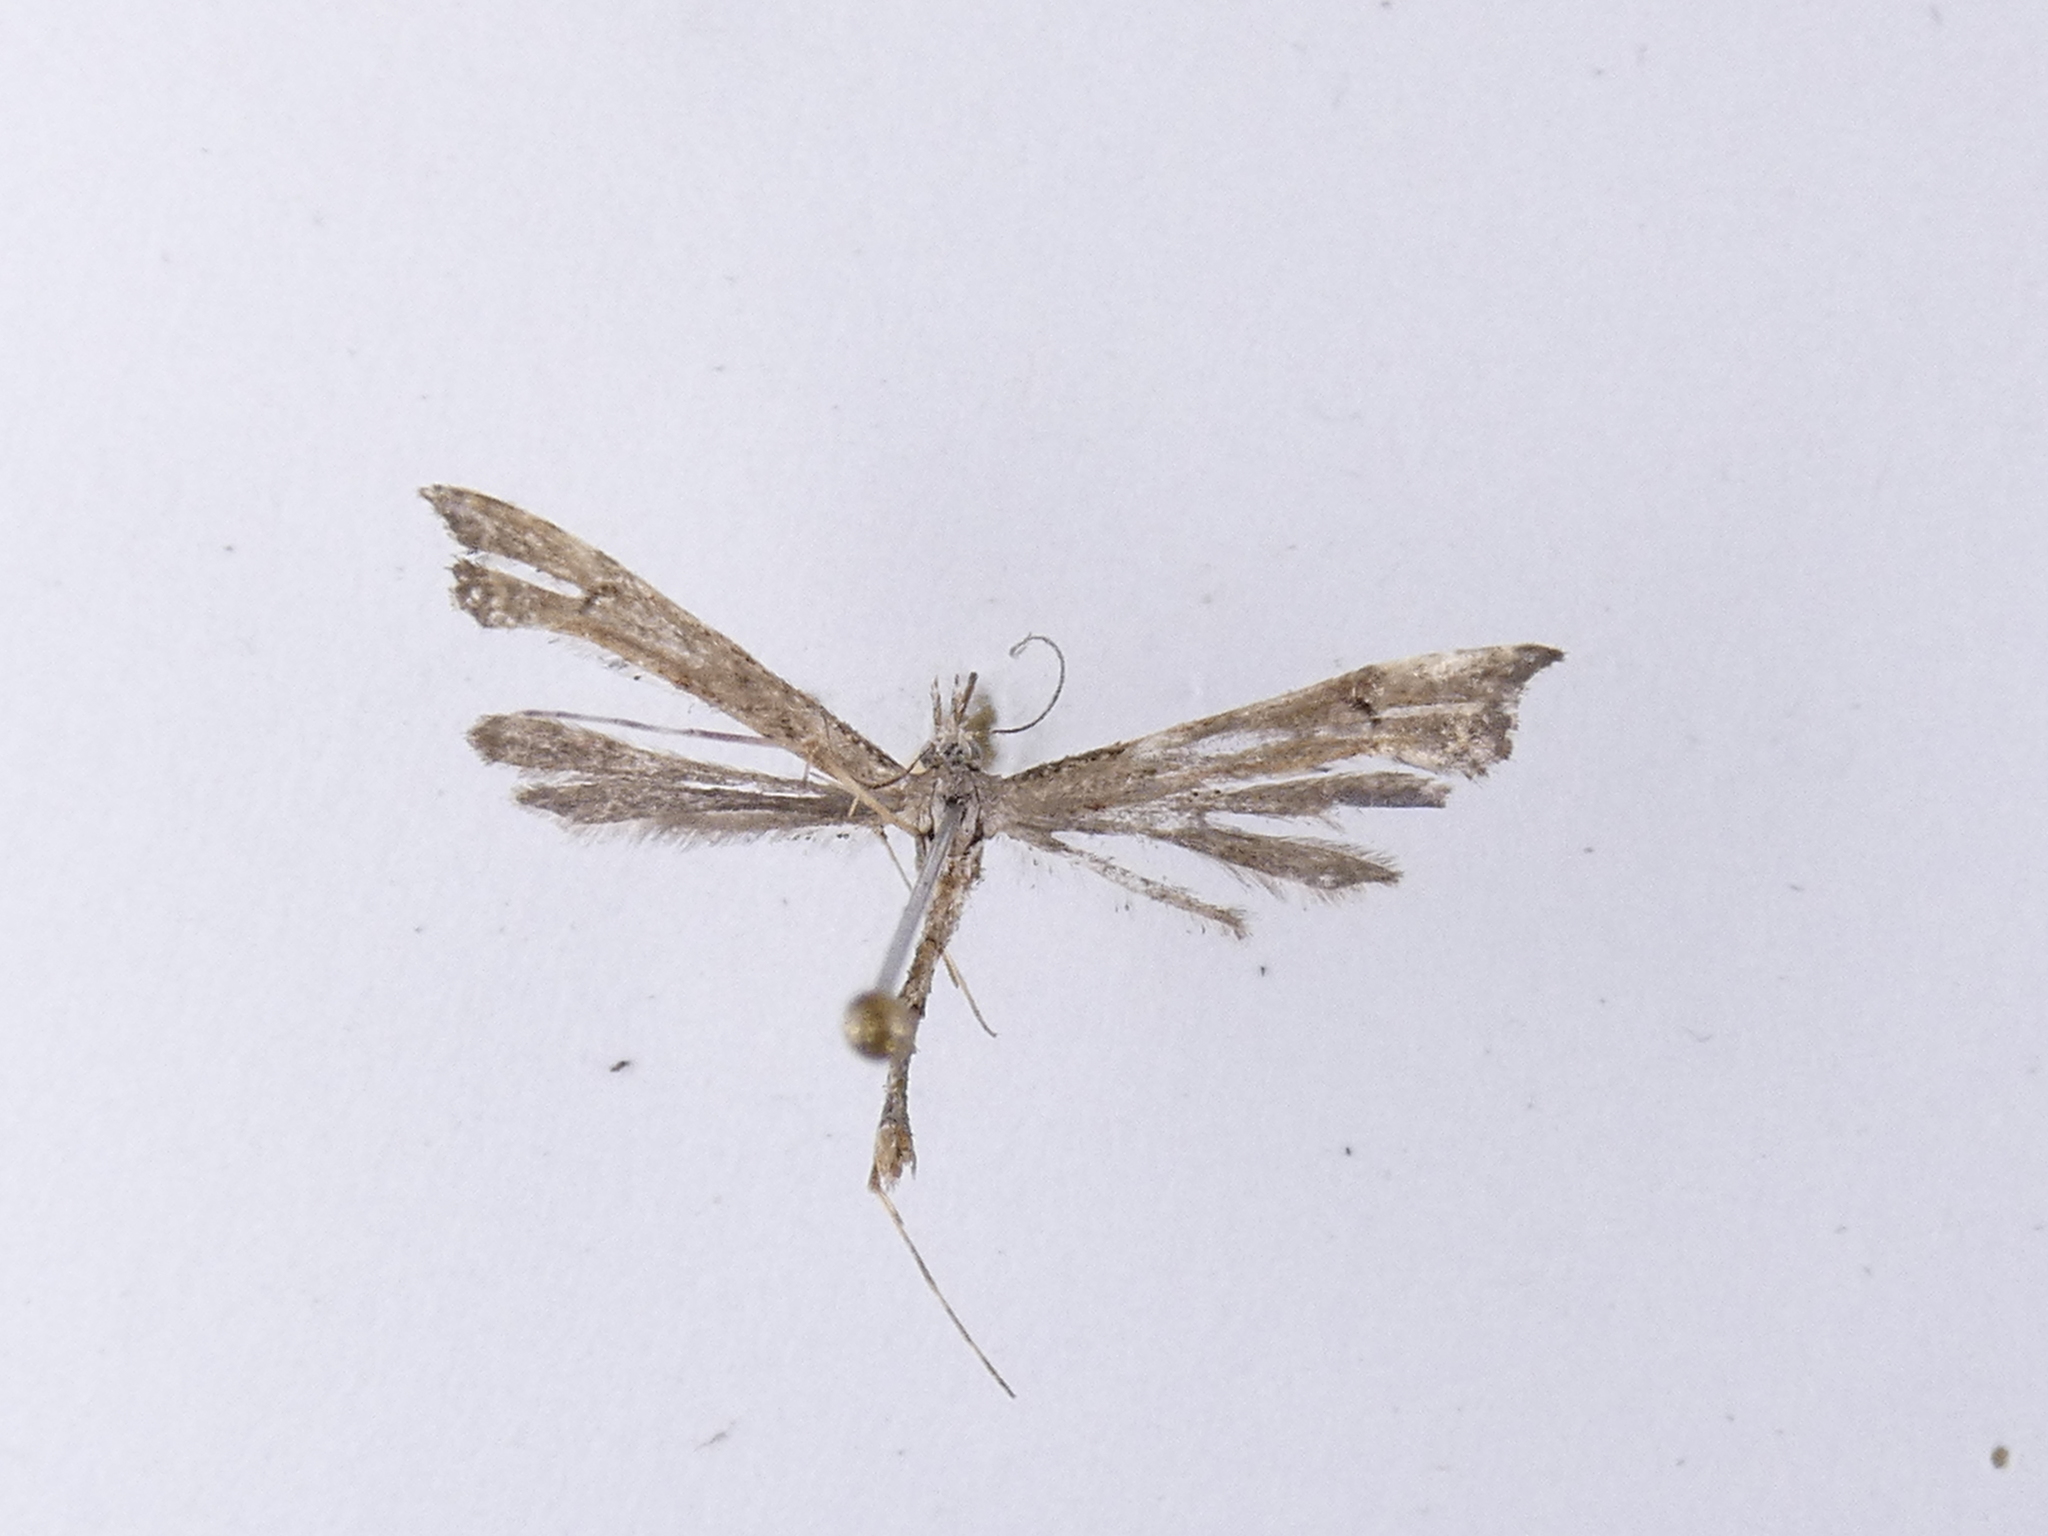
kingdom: Animalia
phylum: Arthropoda
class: Insecta
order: Lepidoptera
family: Pterophoridae
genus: Amblyptilia
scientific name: Amblyptilia repletalis
